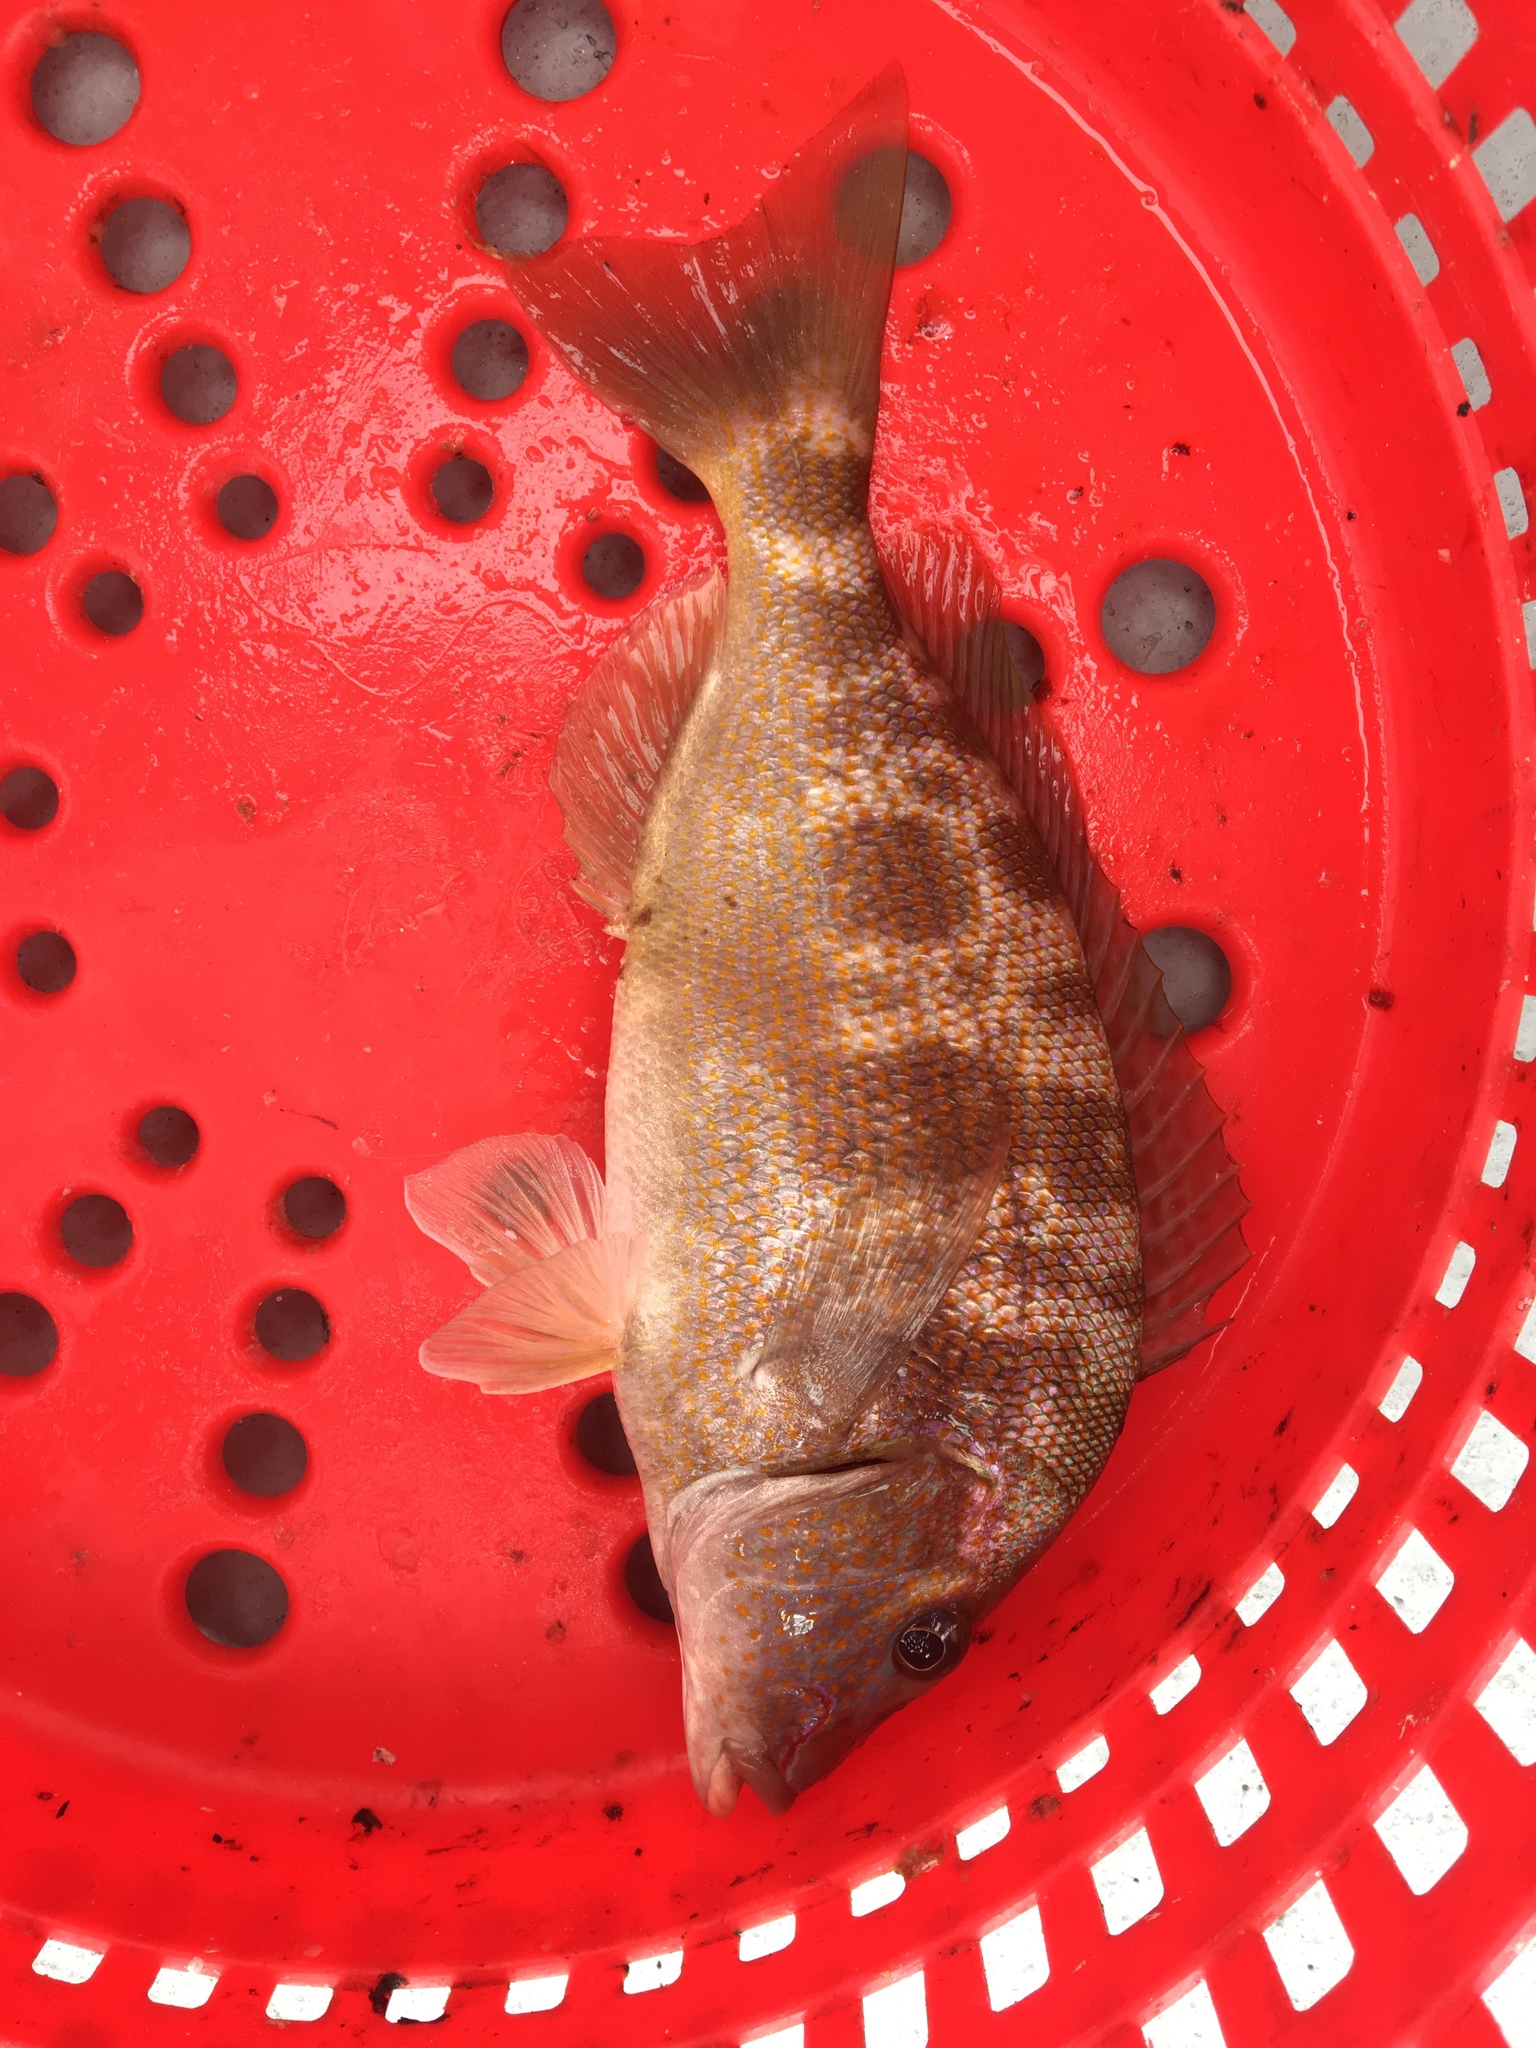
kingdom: Animalia
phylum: Chordata
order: Perciformes
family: Haemulidae
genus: Orthopristis
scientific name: Orthopristis chrysoptera
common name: Pigfish
